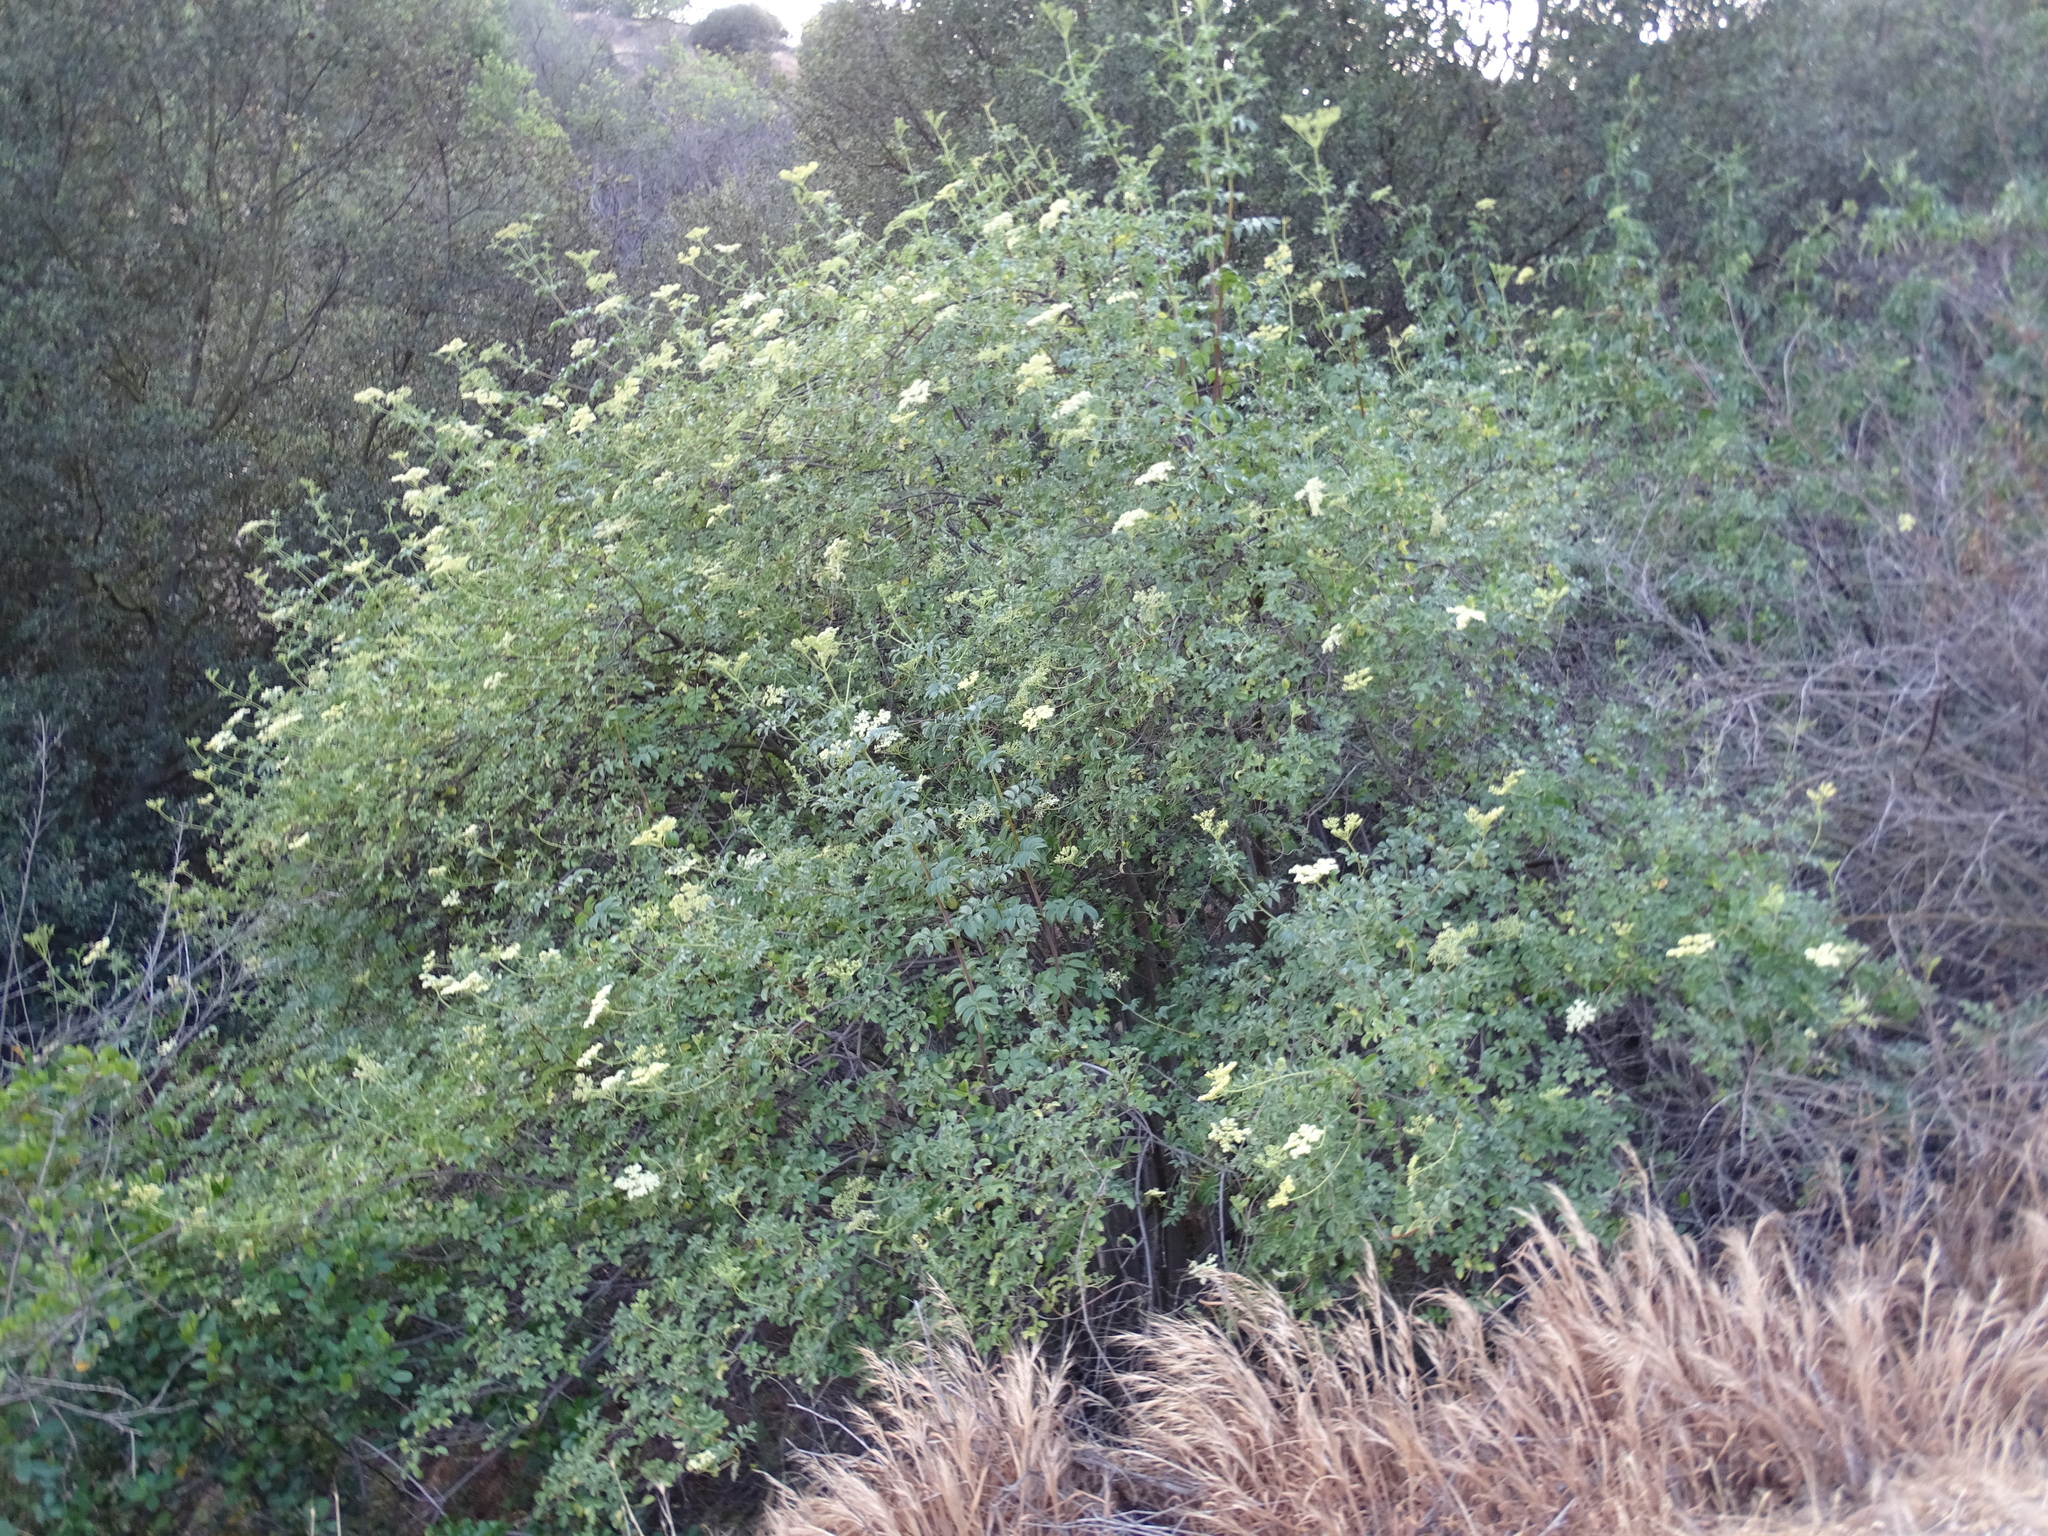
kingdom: Plantae
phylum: Tracheophyta
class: Magnoliopsida
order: Dipsacales
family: Viburnaceae
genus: Sambucus
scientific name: Sambucus cerulea
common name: Blue elder
